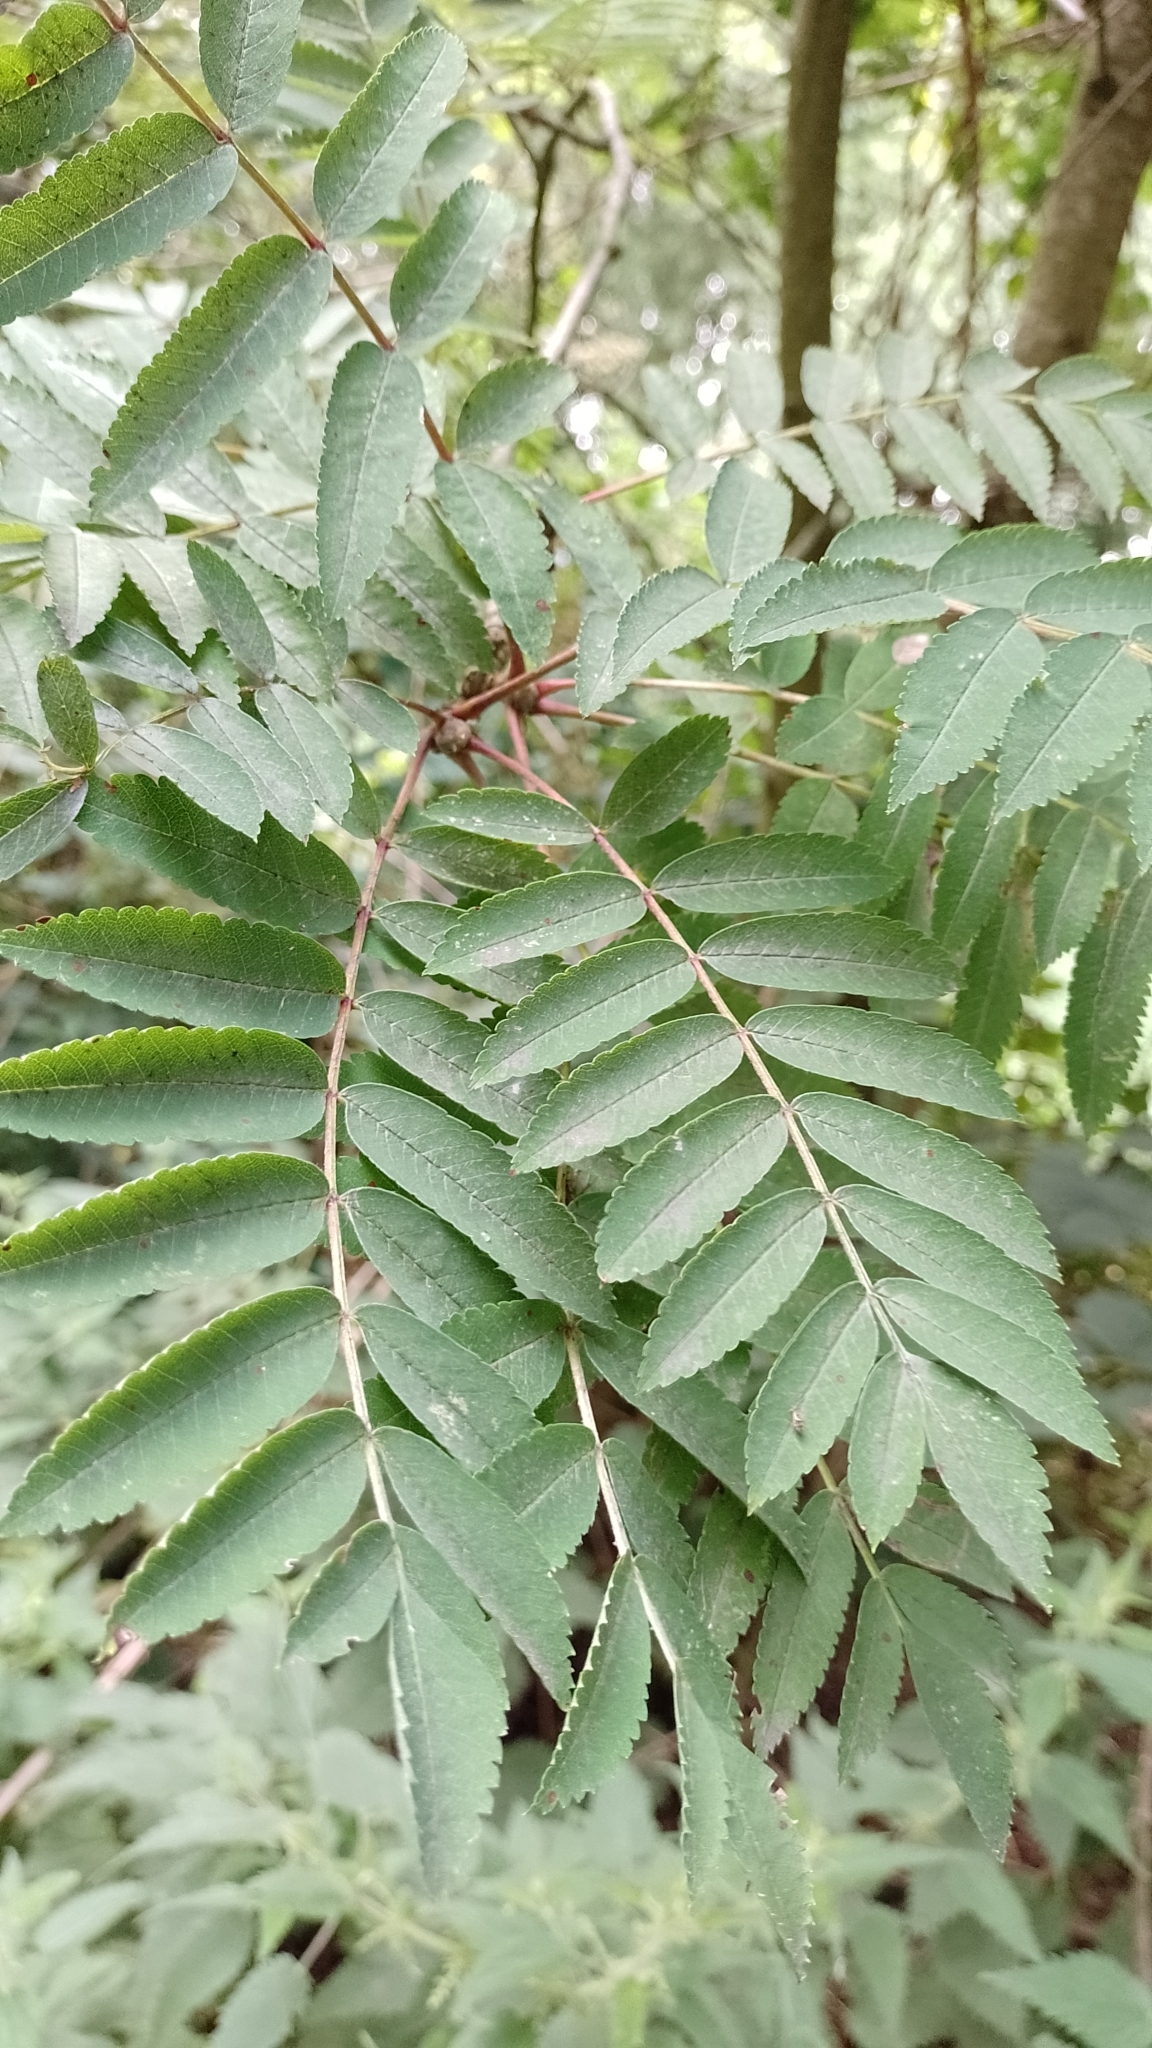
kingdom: Plantae
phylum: Tracheophyta
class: Magnoliopsida
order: Rosales
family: Rosaceae
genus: Sorbus
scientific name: Sorbus aucuparia
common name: Rowan
